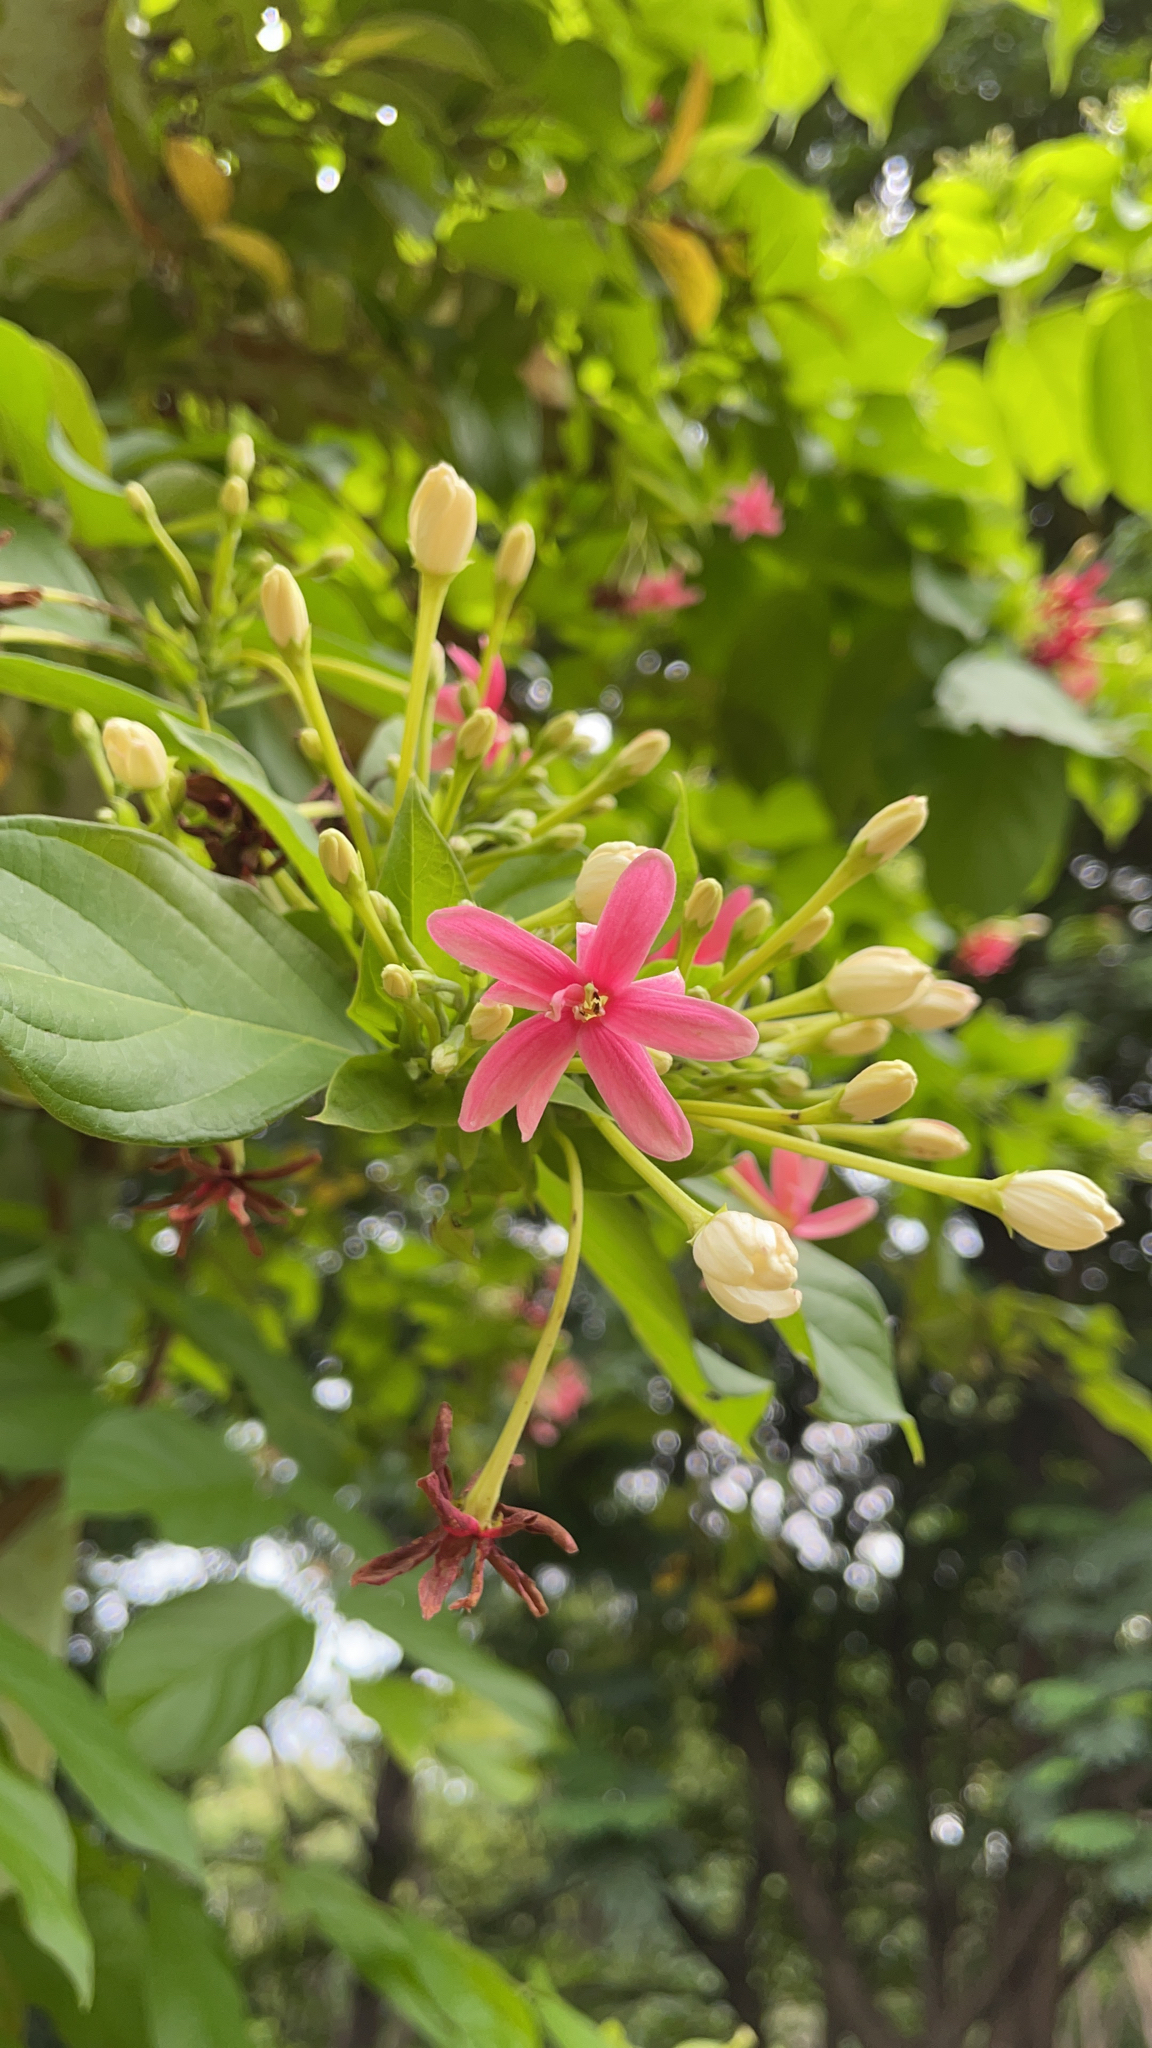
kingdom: Plantae
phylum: Tracheophyta
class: Magnoliopsida
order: Myrtales
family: Combretaceae
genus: Combretum
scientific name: Combretum indicum
